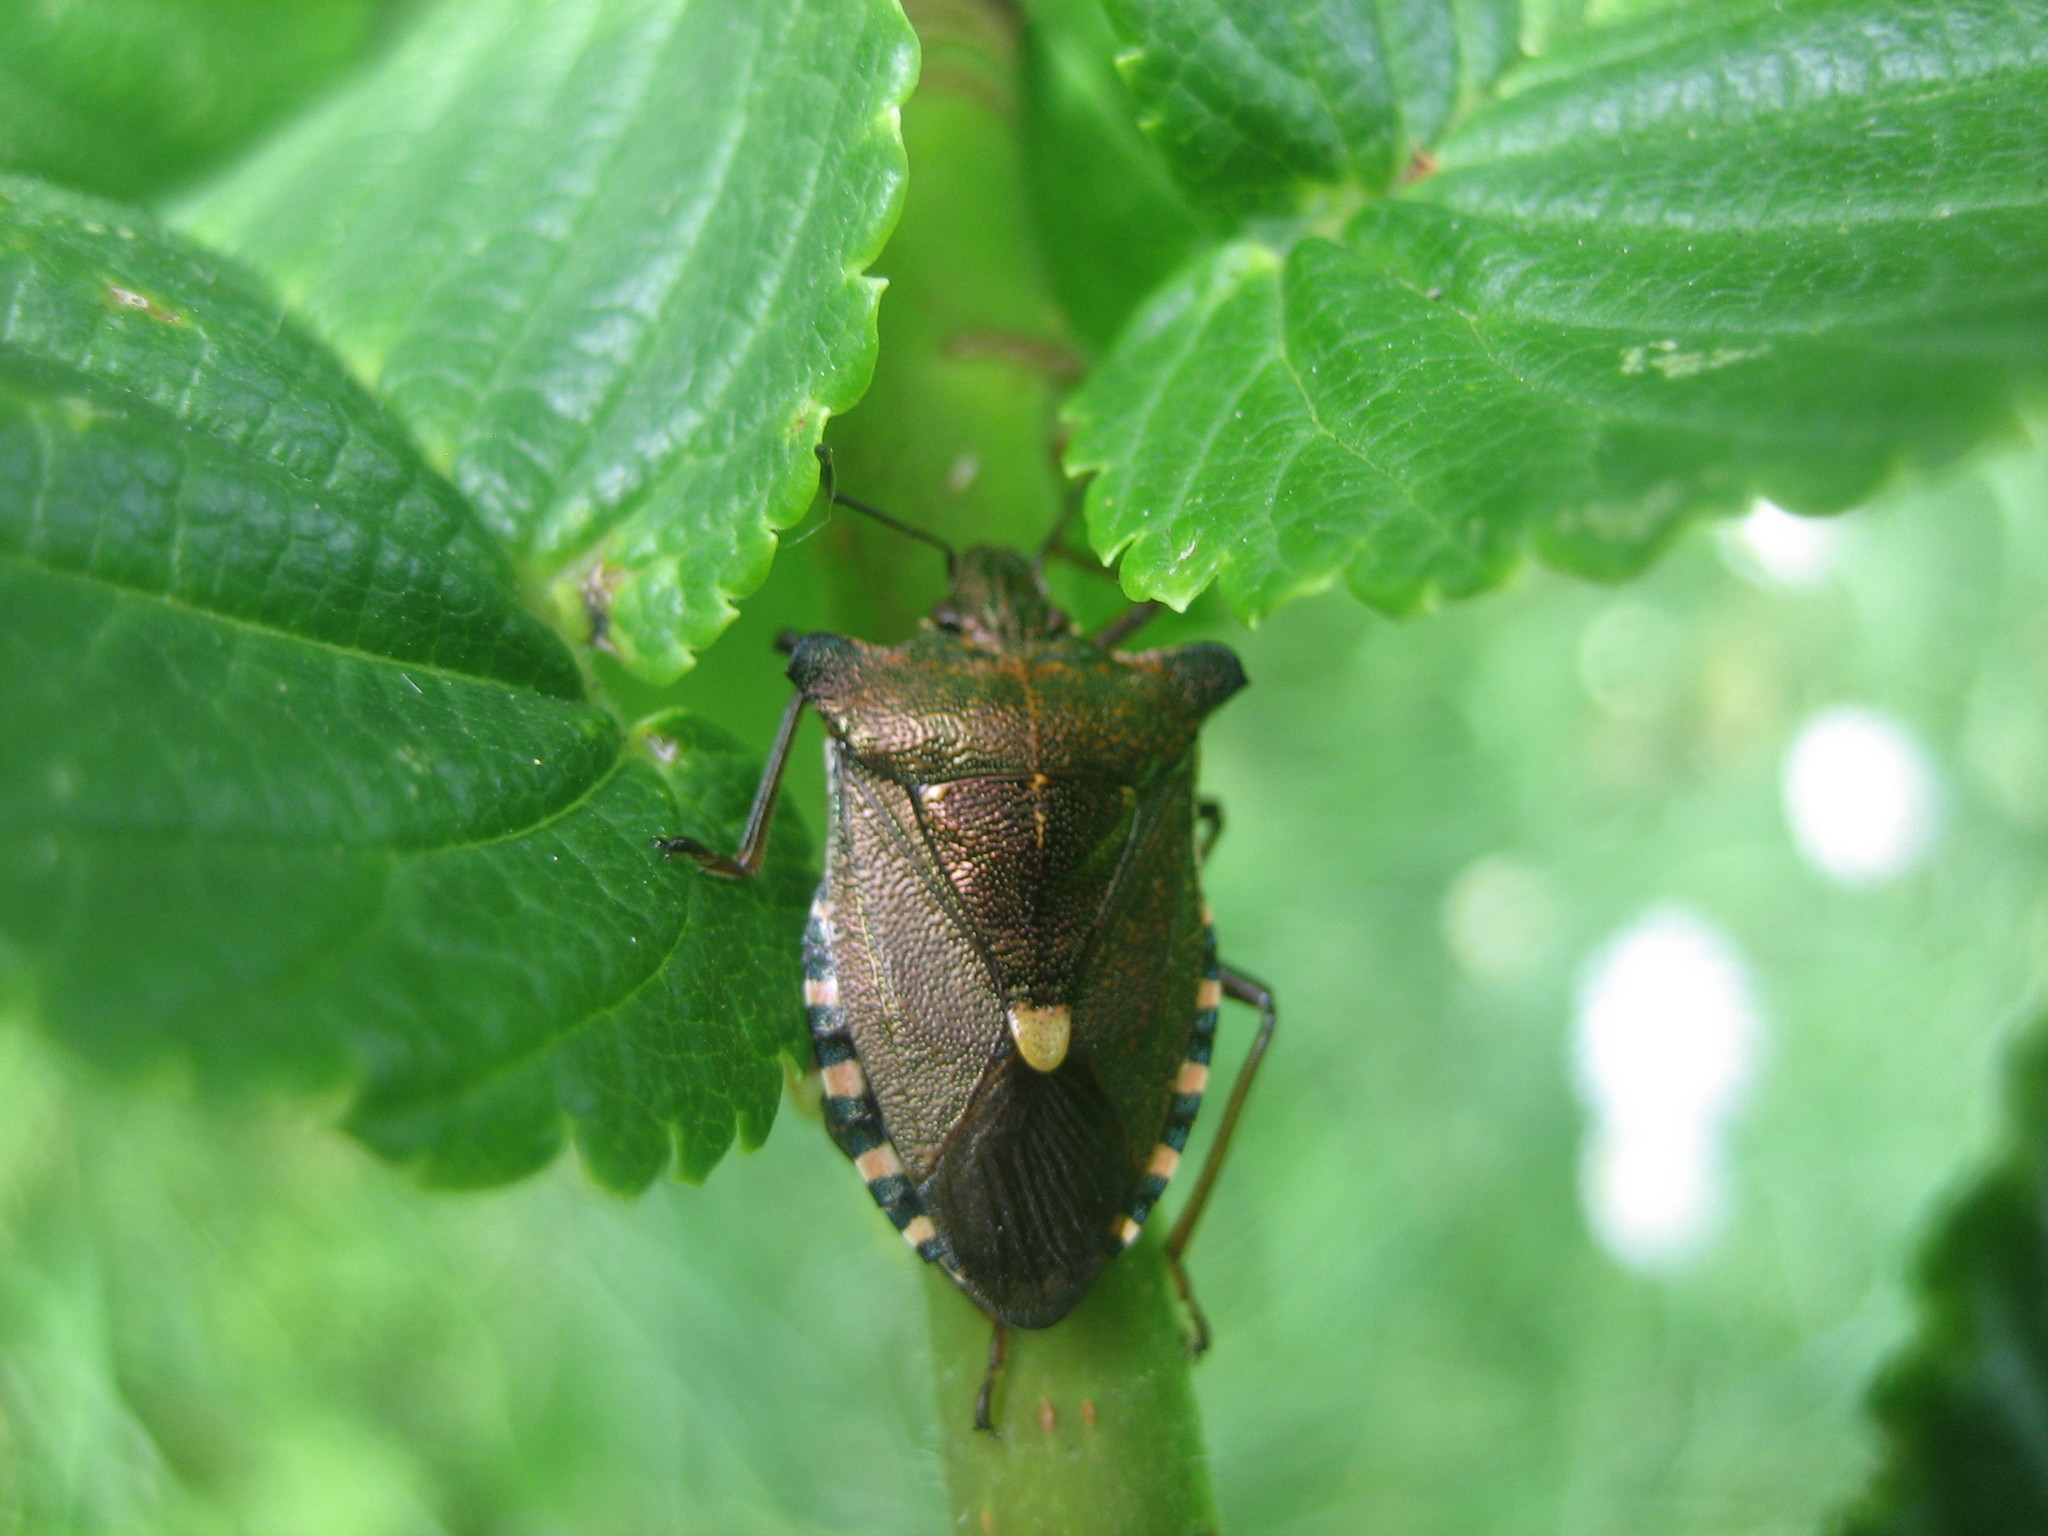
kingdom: Animalia
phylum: Arthropoda
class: Insecta
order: Hemiptera
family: Pentatomidae
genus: Pentatoma
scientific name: Pentatoma rufipes
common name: Forest bug
